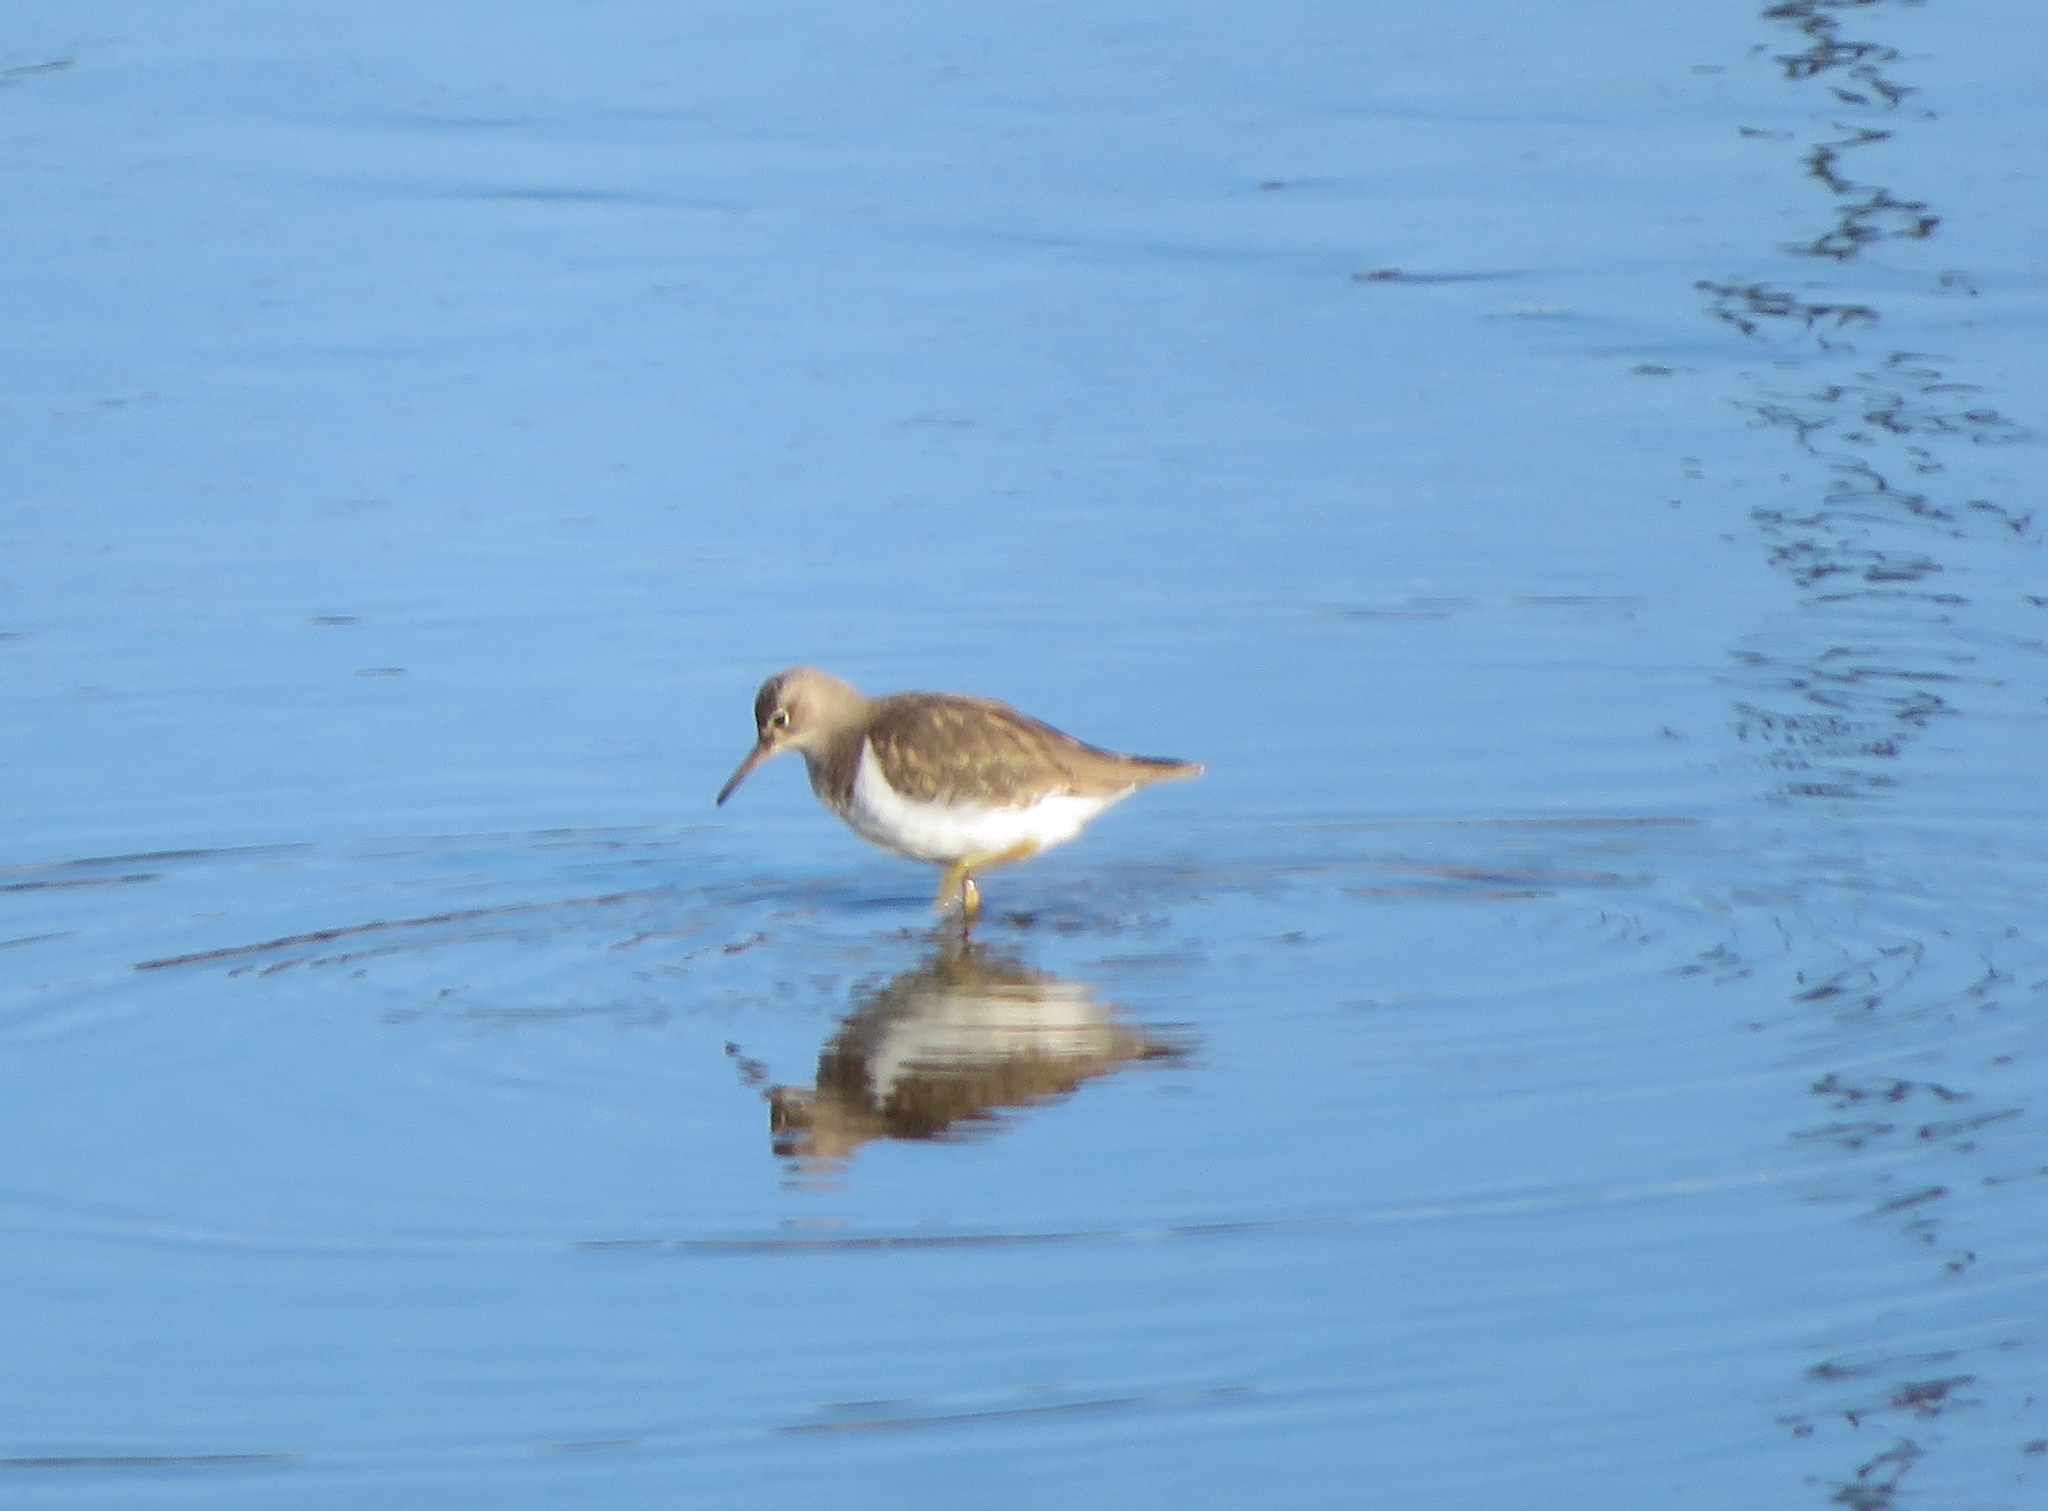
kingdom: Animalia
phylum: Chordata
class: Aves
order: Charadriiformes
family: Scolopacidae
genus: Actitis
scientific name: Actitis hypoleucos
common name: Common sandpiper
